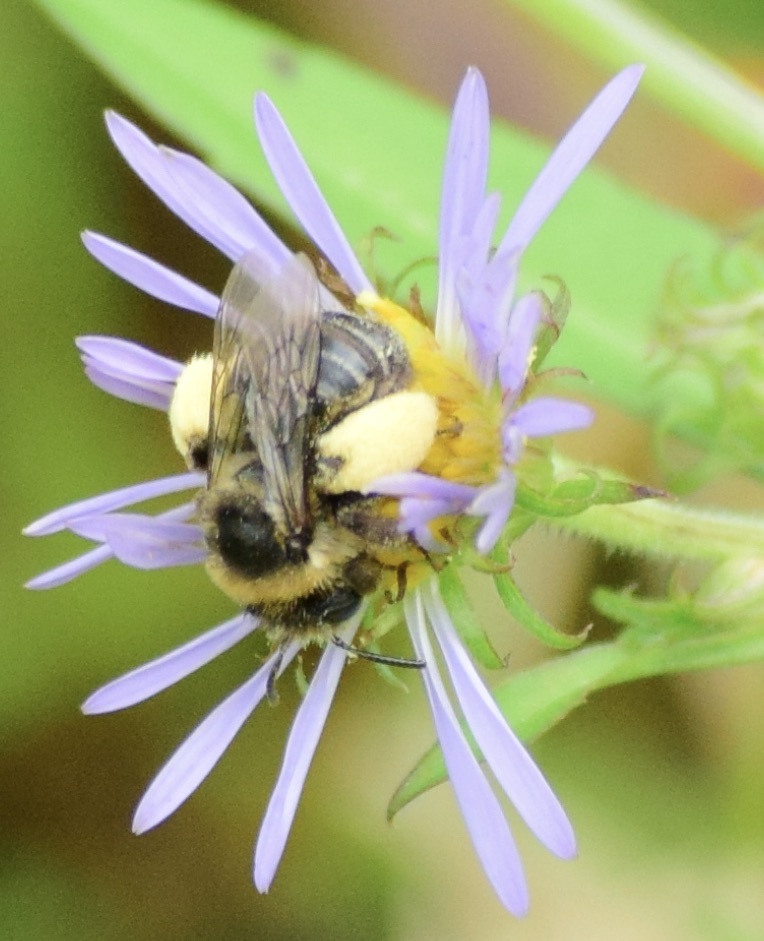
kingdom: Animalia
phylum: Arthropoda
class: Insecta
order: Hymenoptera
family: Apidae
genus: Melissodes
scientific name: Melissodes druriellus
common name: Drury's long-horned bee
